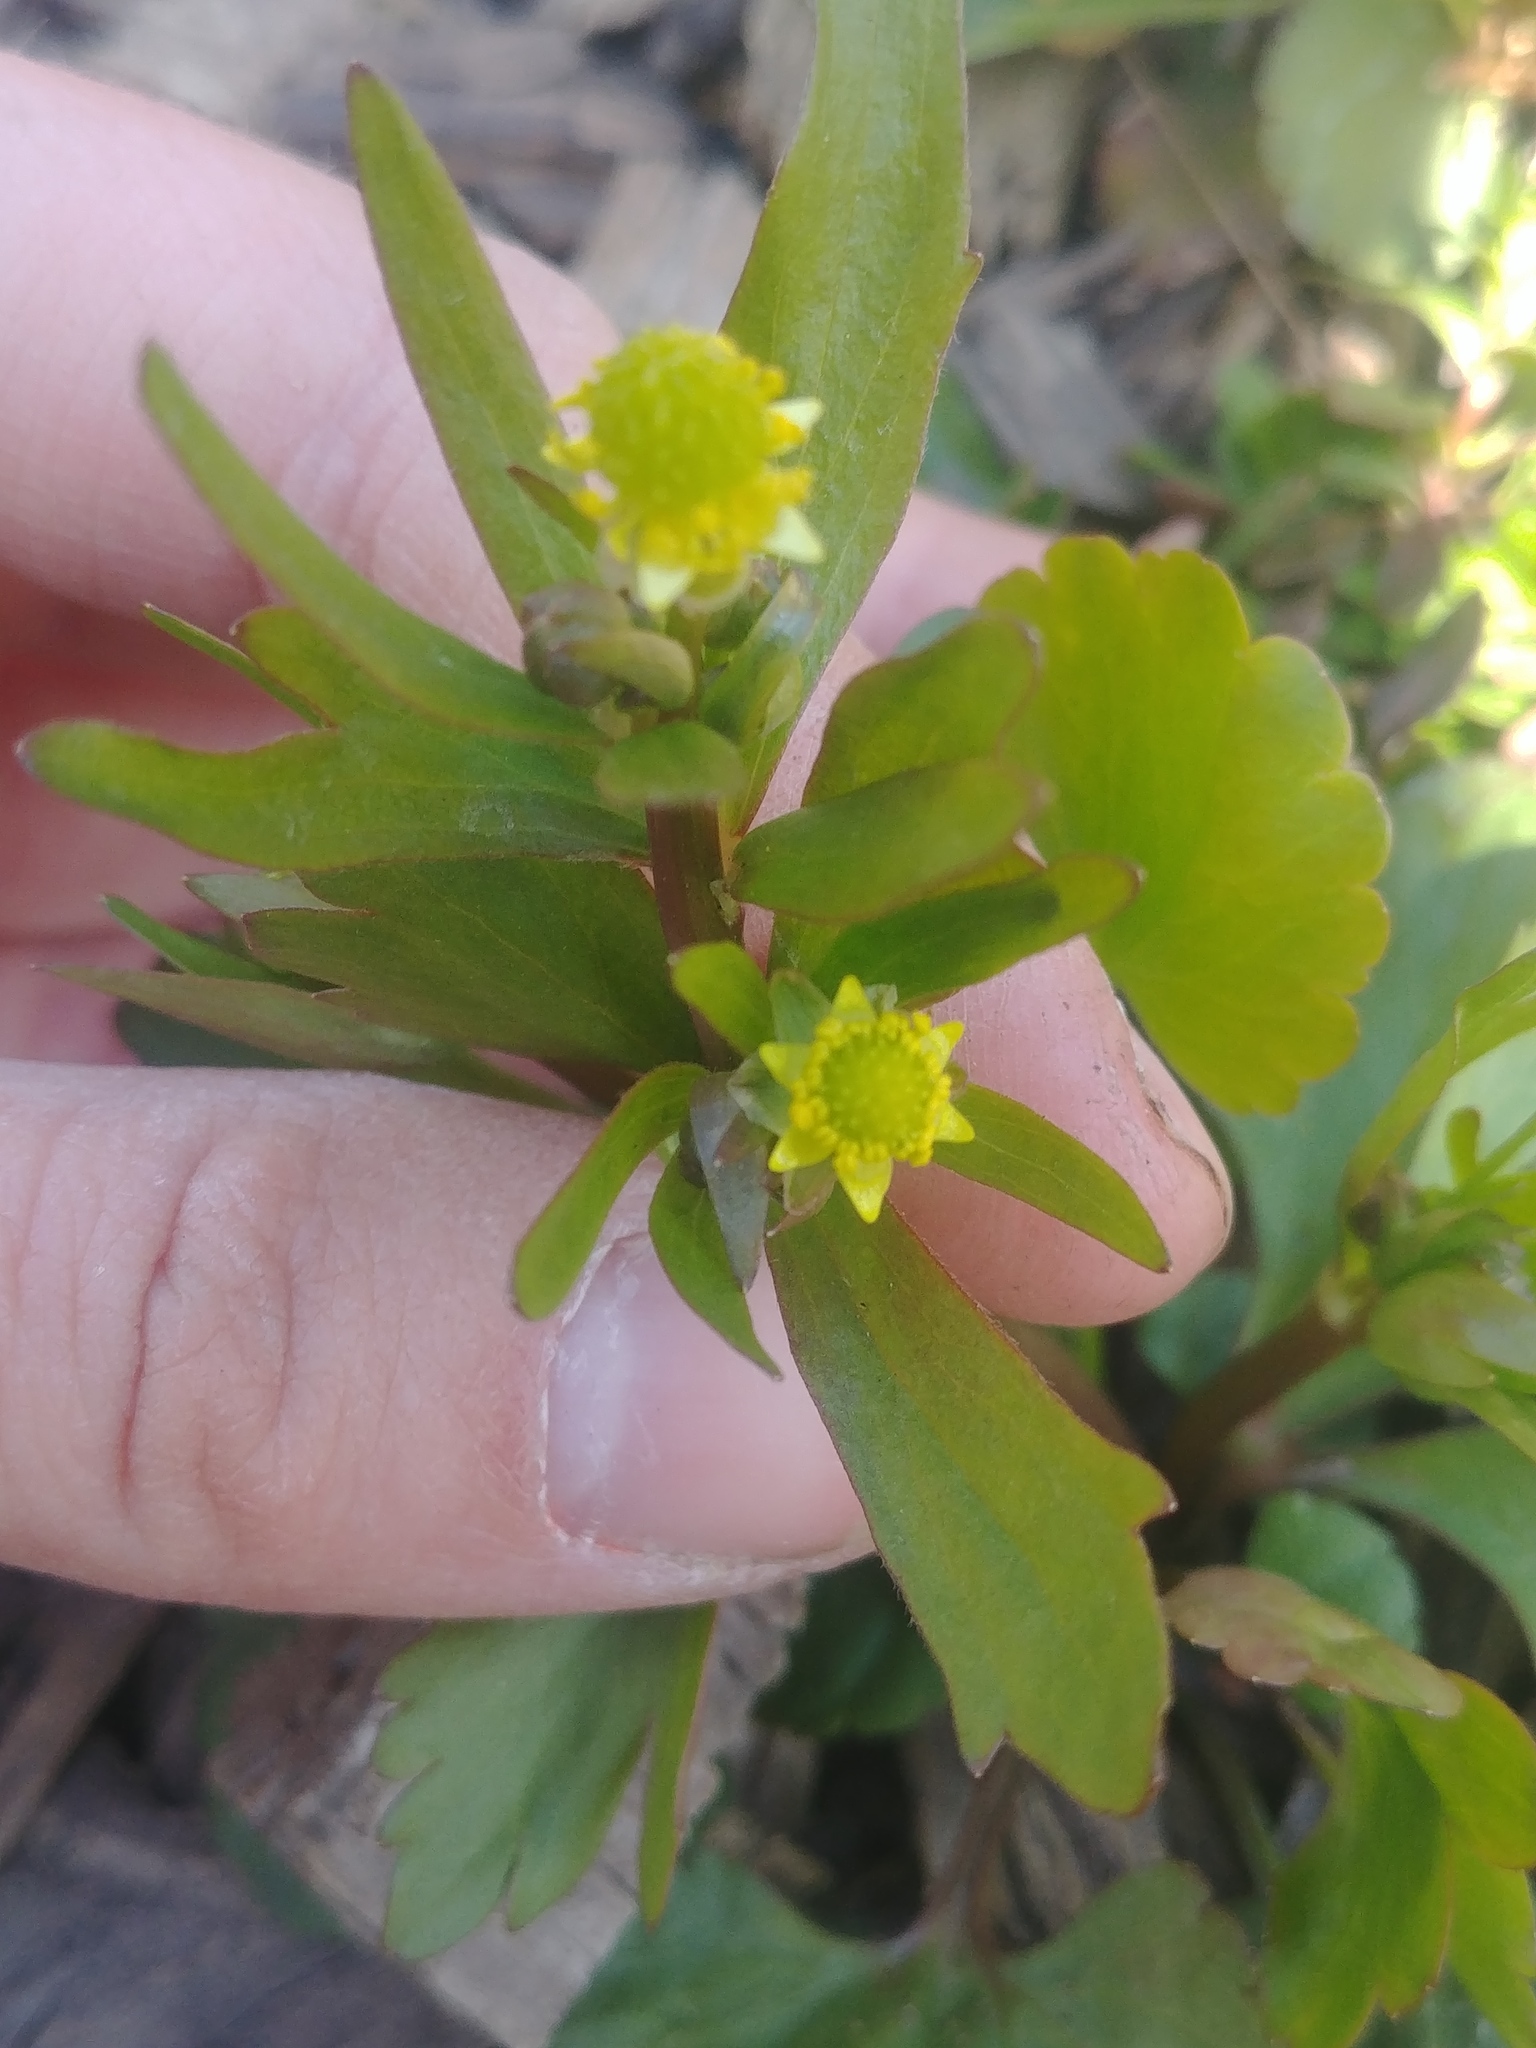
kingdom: Plantae
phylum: Tracheophyta
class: Magnoliopsida
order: Ranunculales
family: Ranunculaceae
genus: Ranunculus
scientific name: Ranunculus abortivus
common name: Early wood buttercup
